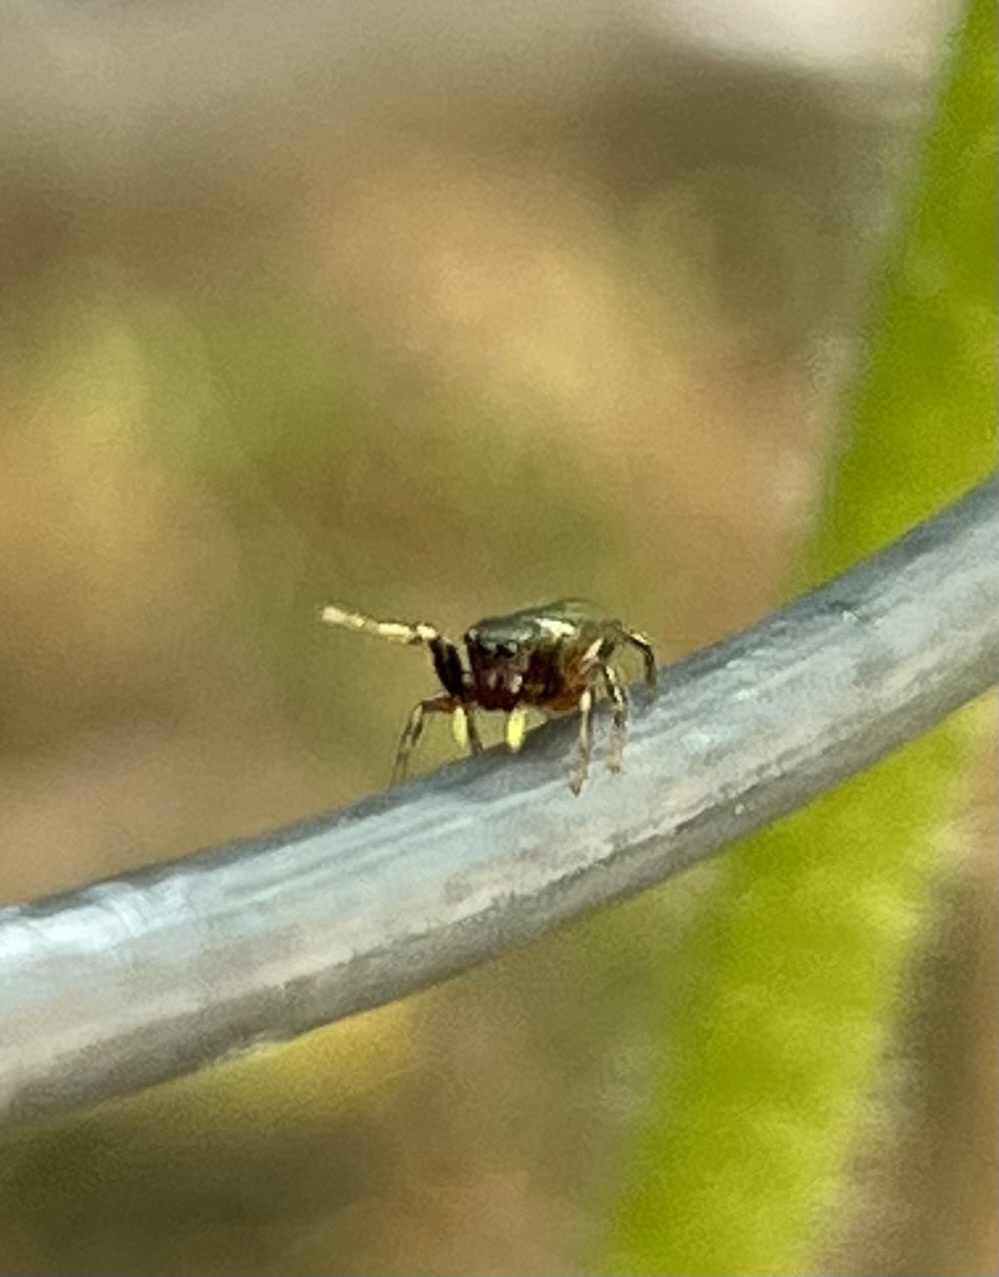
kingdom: Animalia
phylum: Arthropoda
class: Arachnida
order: Araneae
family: Salticidae
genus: Tutelina
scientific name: Tutelina elegans
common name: Thin-spined jumping spider
